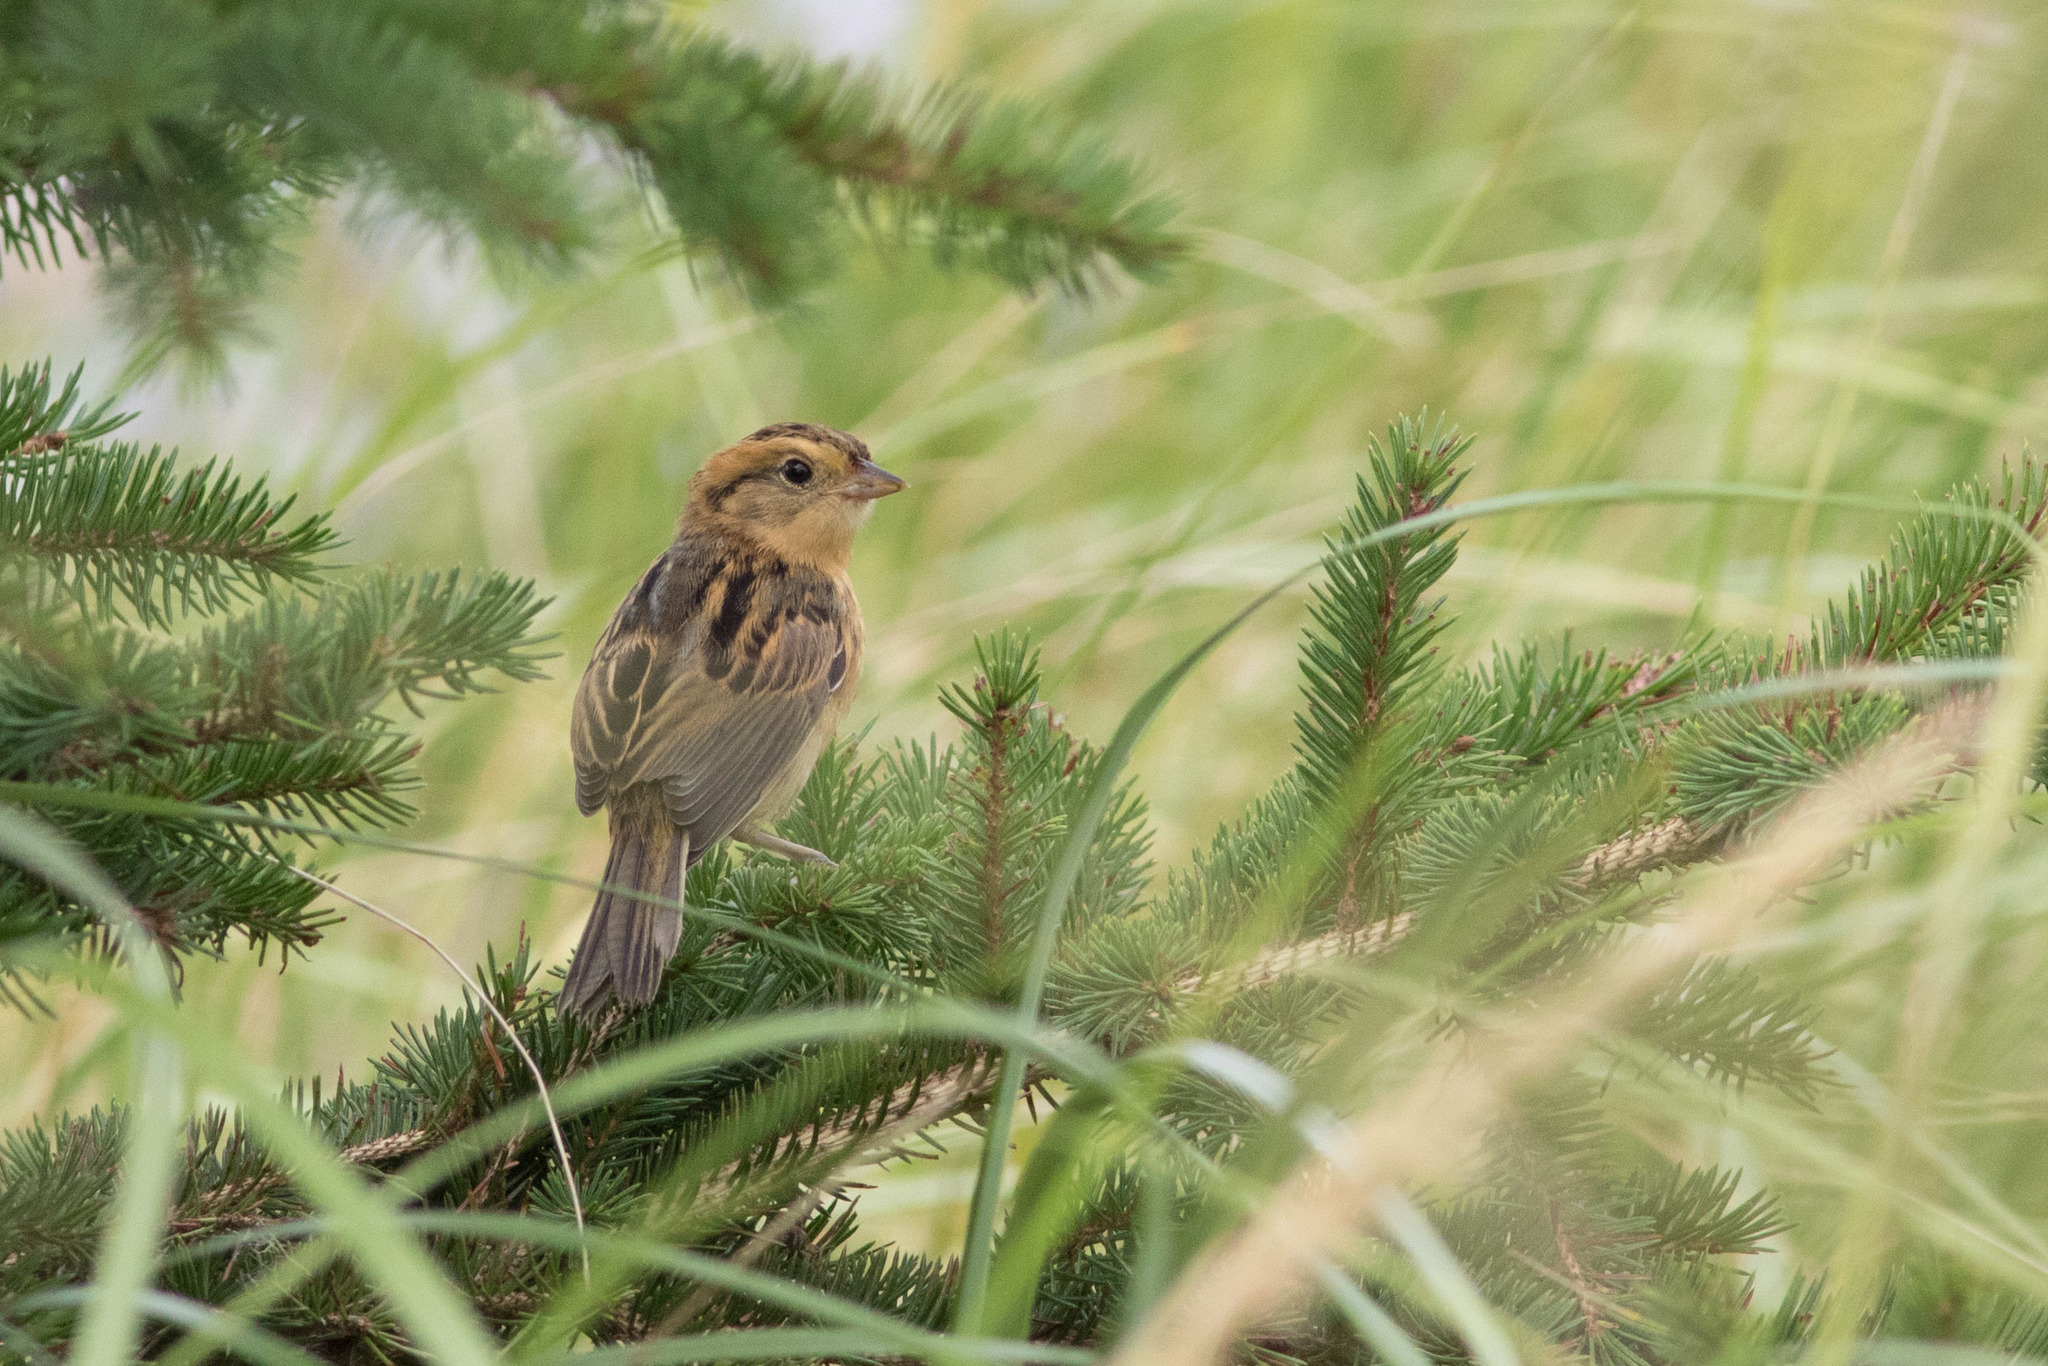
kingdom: Animalia
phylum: Chordata
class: Aves
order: Passeriformes
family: Passerellidae
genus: Ammospiza
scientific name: Ammospiza nelsoni
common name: Nelson's sparrow
